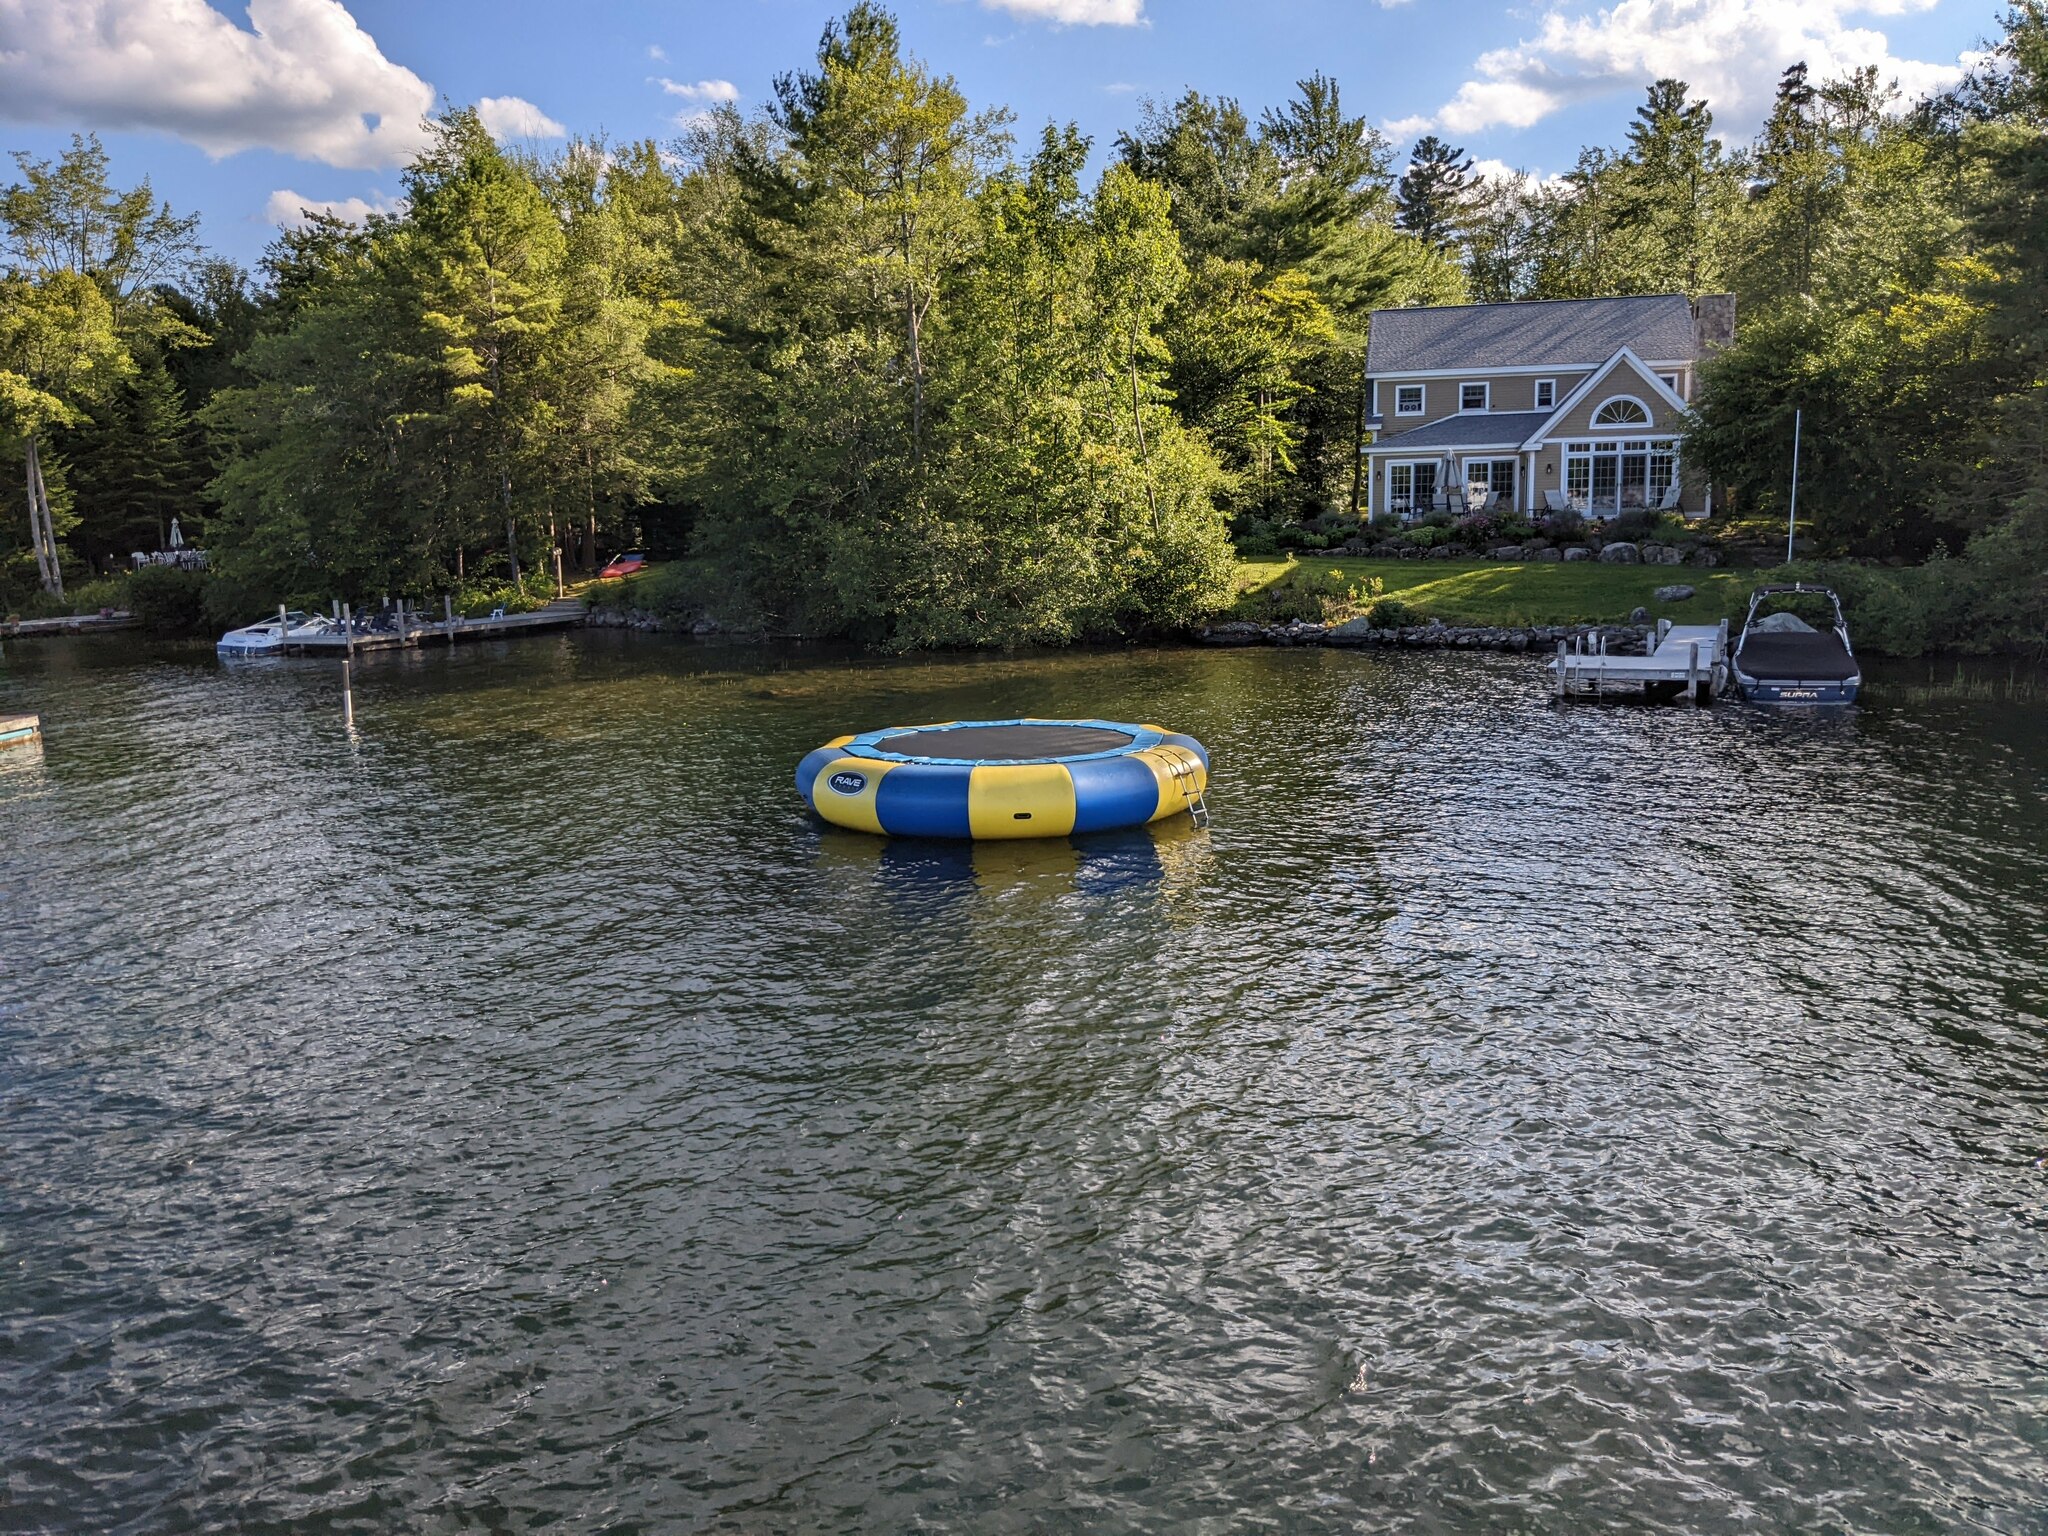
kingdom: Plantae
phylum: Tracheophyta
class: Pinopsida
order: Pinales
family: Pinaceae
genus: Pinus
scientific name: Pinus strobus
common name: Weymouth pine
